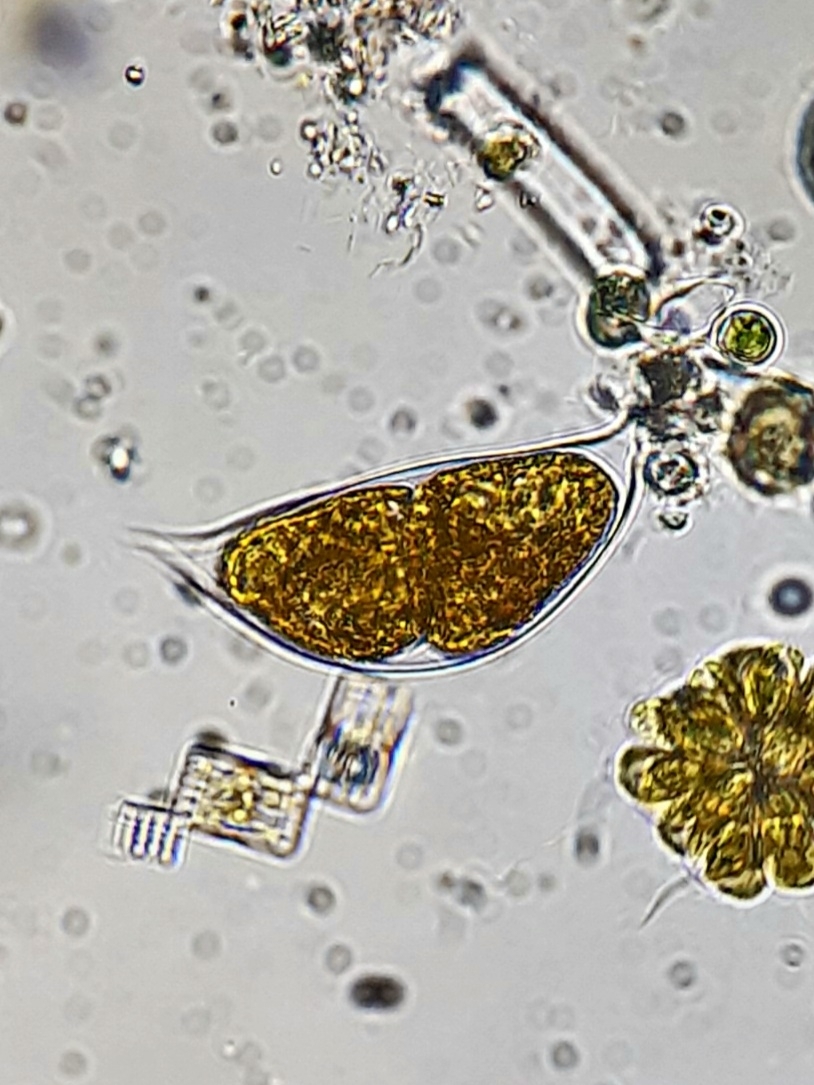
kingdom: Chromista
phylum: Myzozoa
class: Dinophyceae
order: Phytodiniales
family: Phytodiniaceae
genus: Cystodinium
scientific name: Cystodinium cornifax
